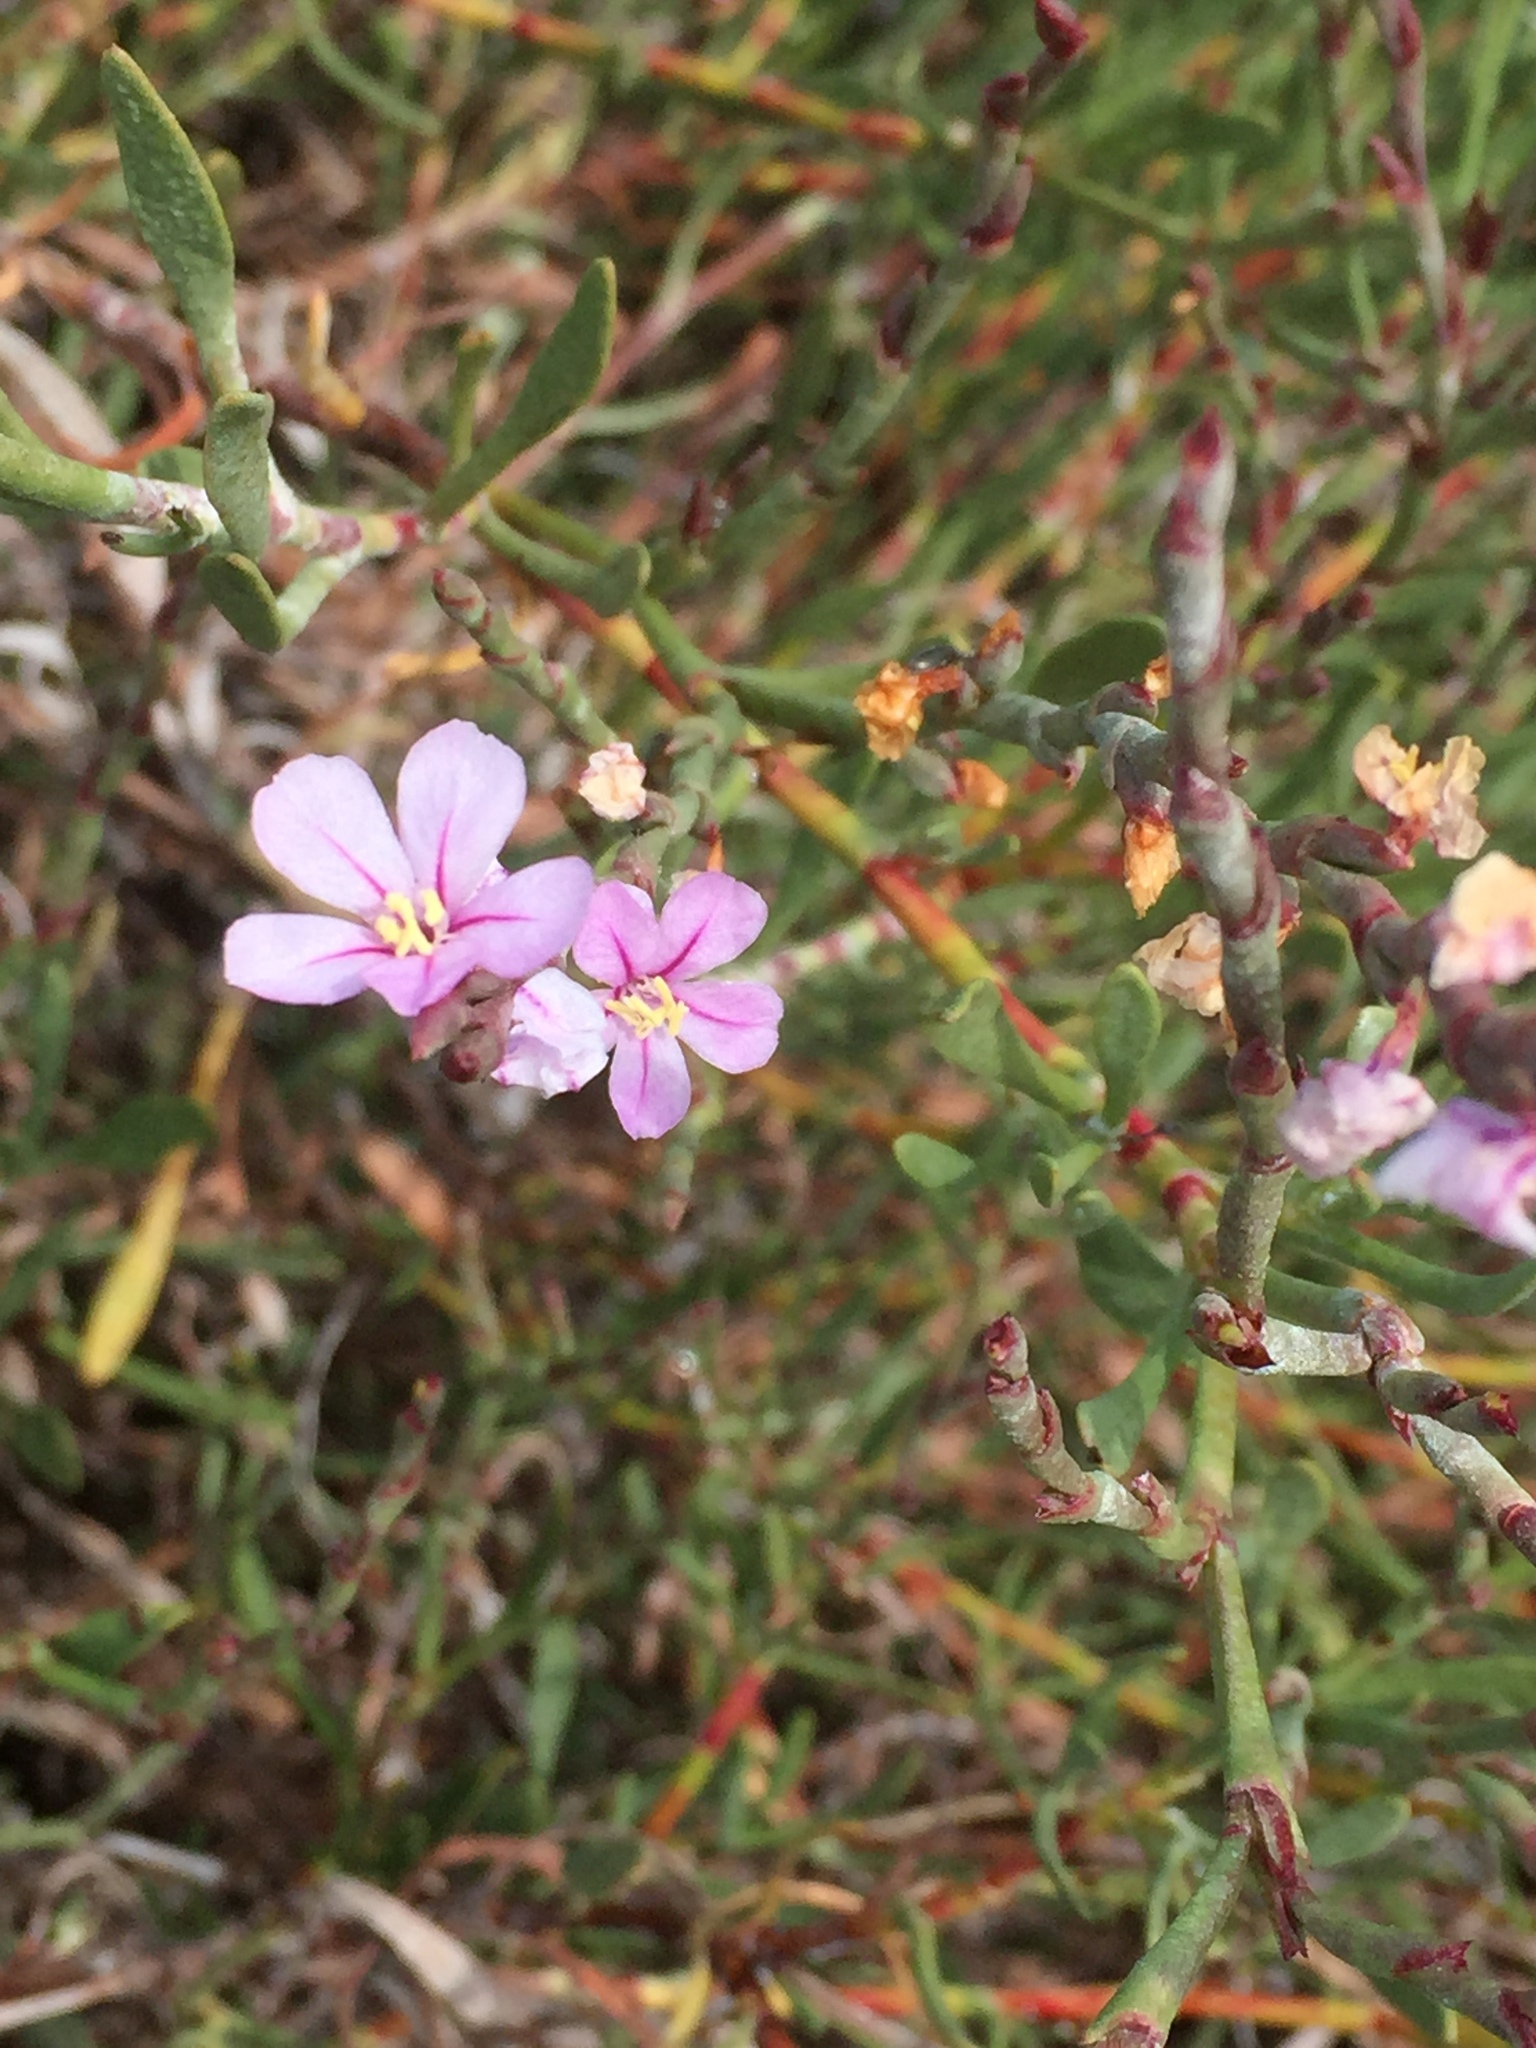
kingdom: Plantae
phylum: Tracheophyta
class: Magnoliopsida
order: Caryophyllales
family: Plumbaginaceae
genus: Limoniastrum
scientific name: Limoniastrum monopetalum
